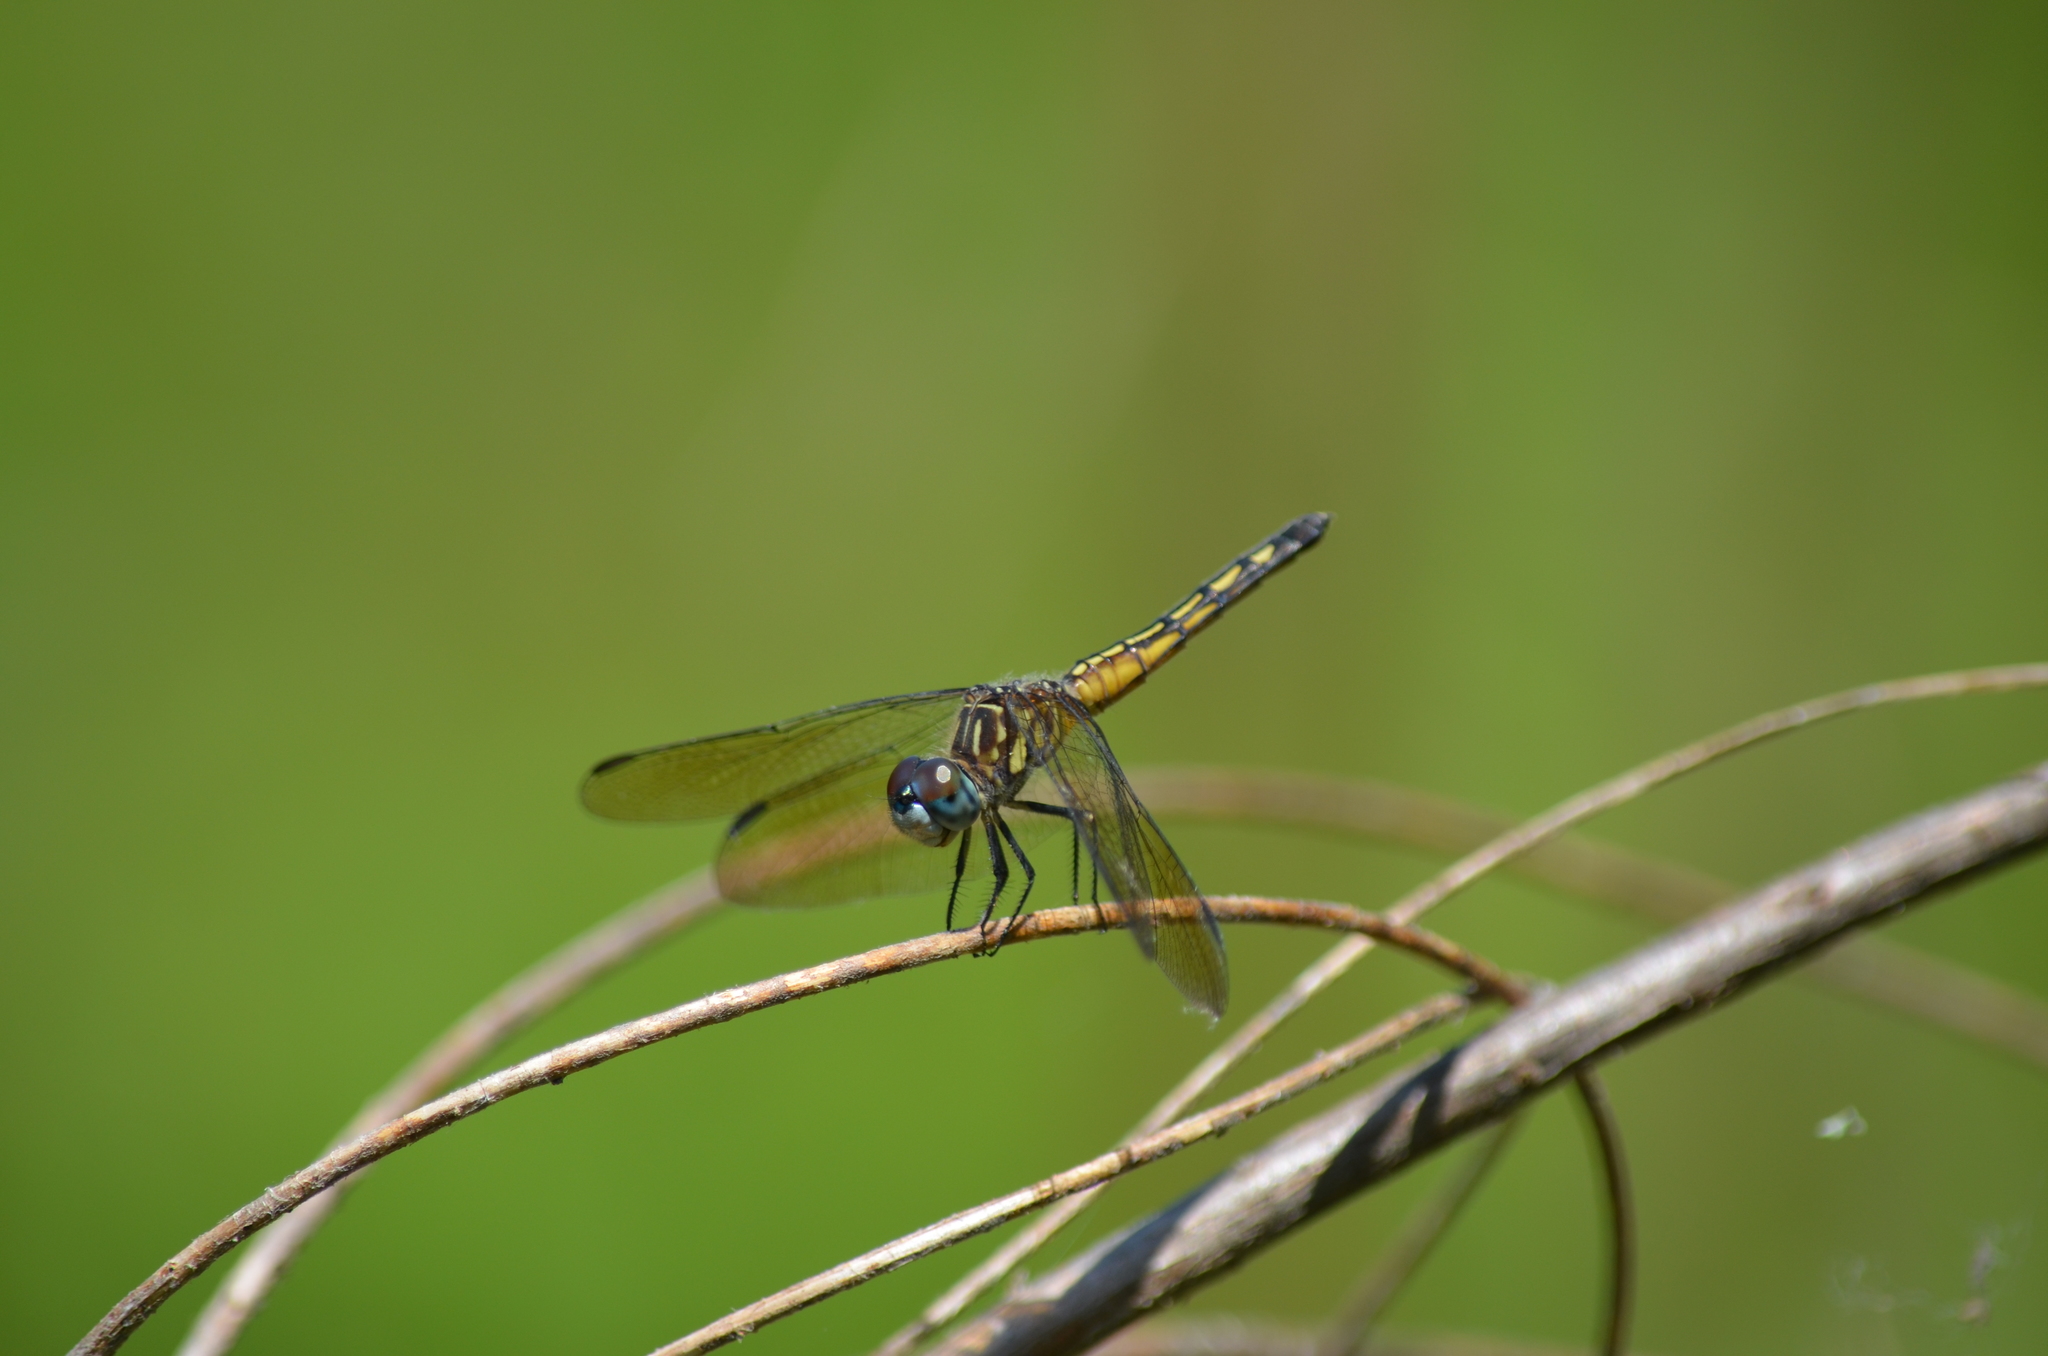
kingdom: Animalia
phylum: Arthropoda
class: Insecta
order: Odonata
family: Libellulidae
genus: Pachydiplax
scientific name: Pachydiplax longipennis
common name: Blue dasher
